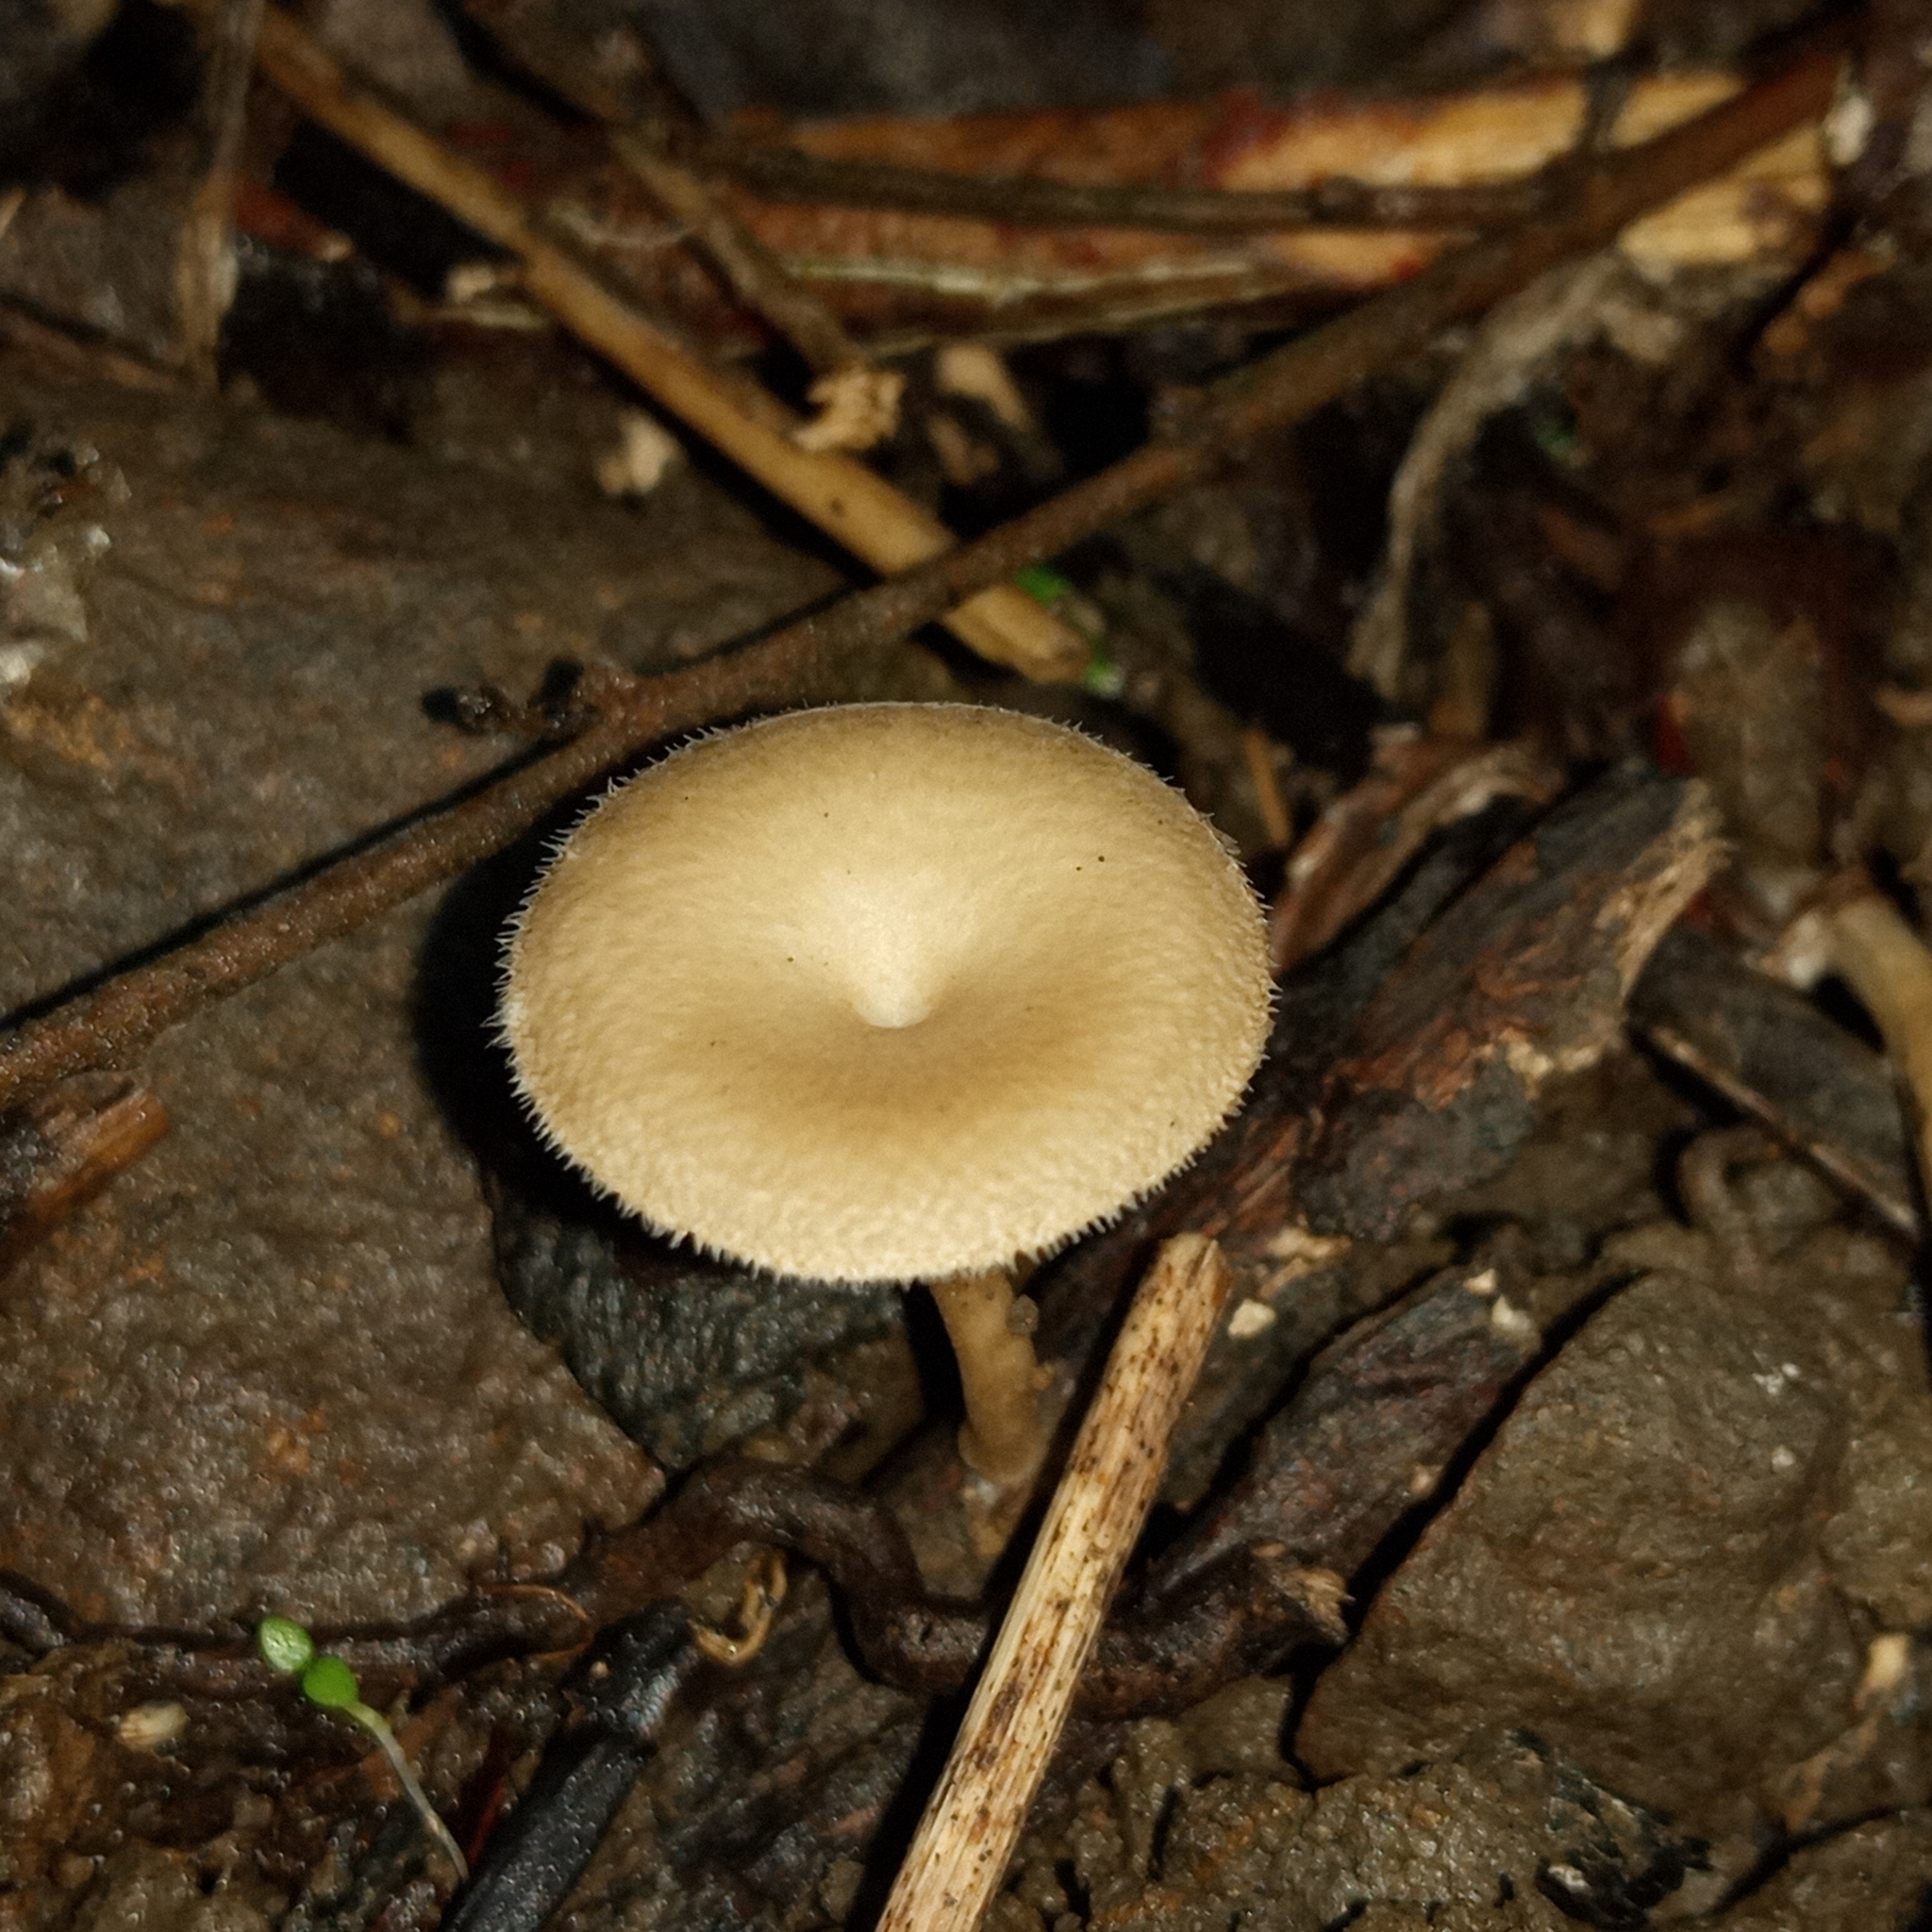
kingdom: Fungi
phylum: Basidiomycota
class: Agaricomycetes
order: Polyporales
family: Polyporaceae
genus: Lentinus
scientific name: Lentinus arcularius
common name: Spring polypore
